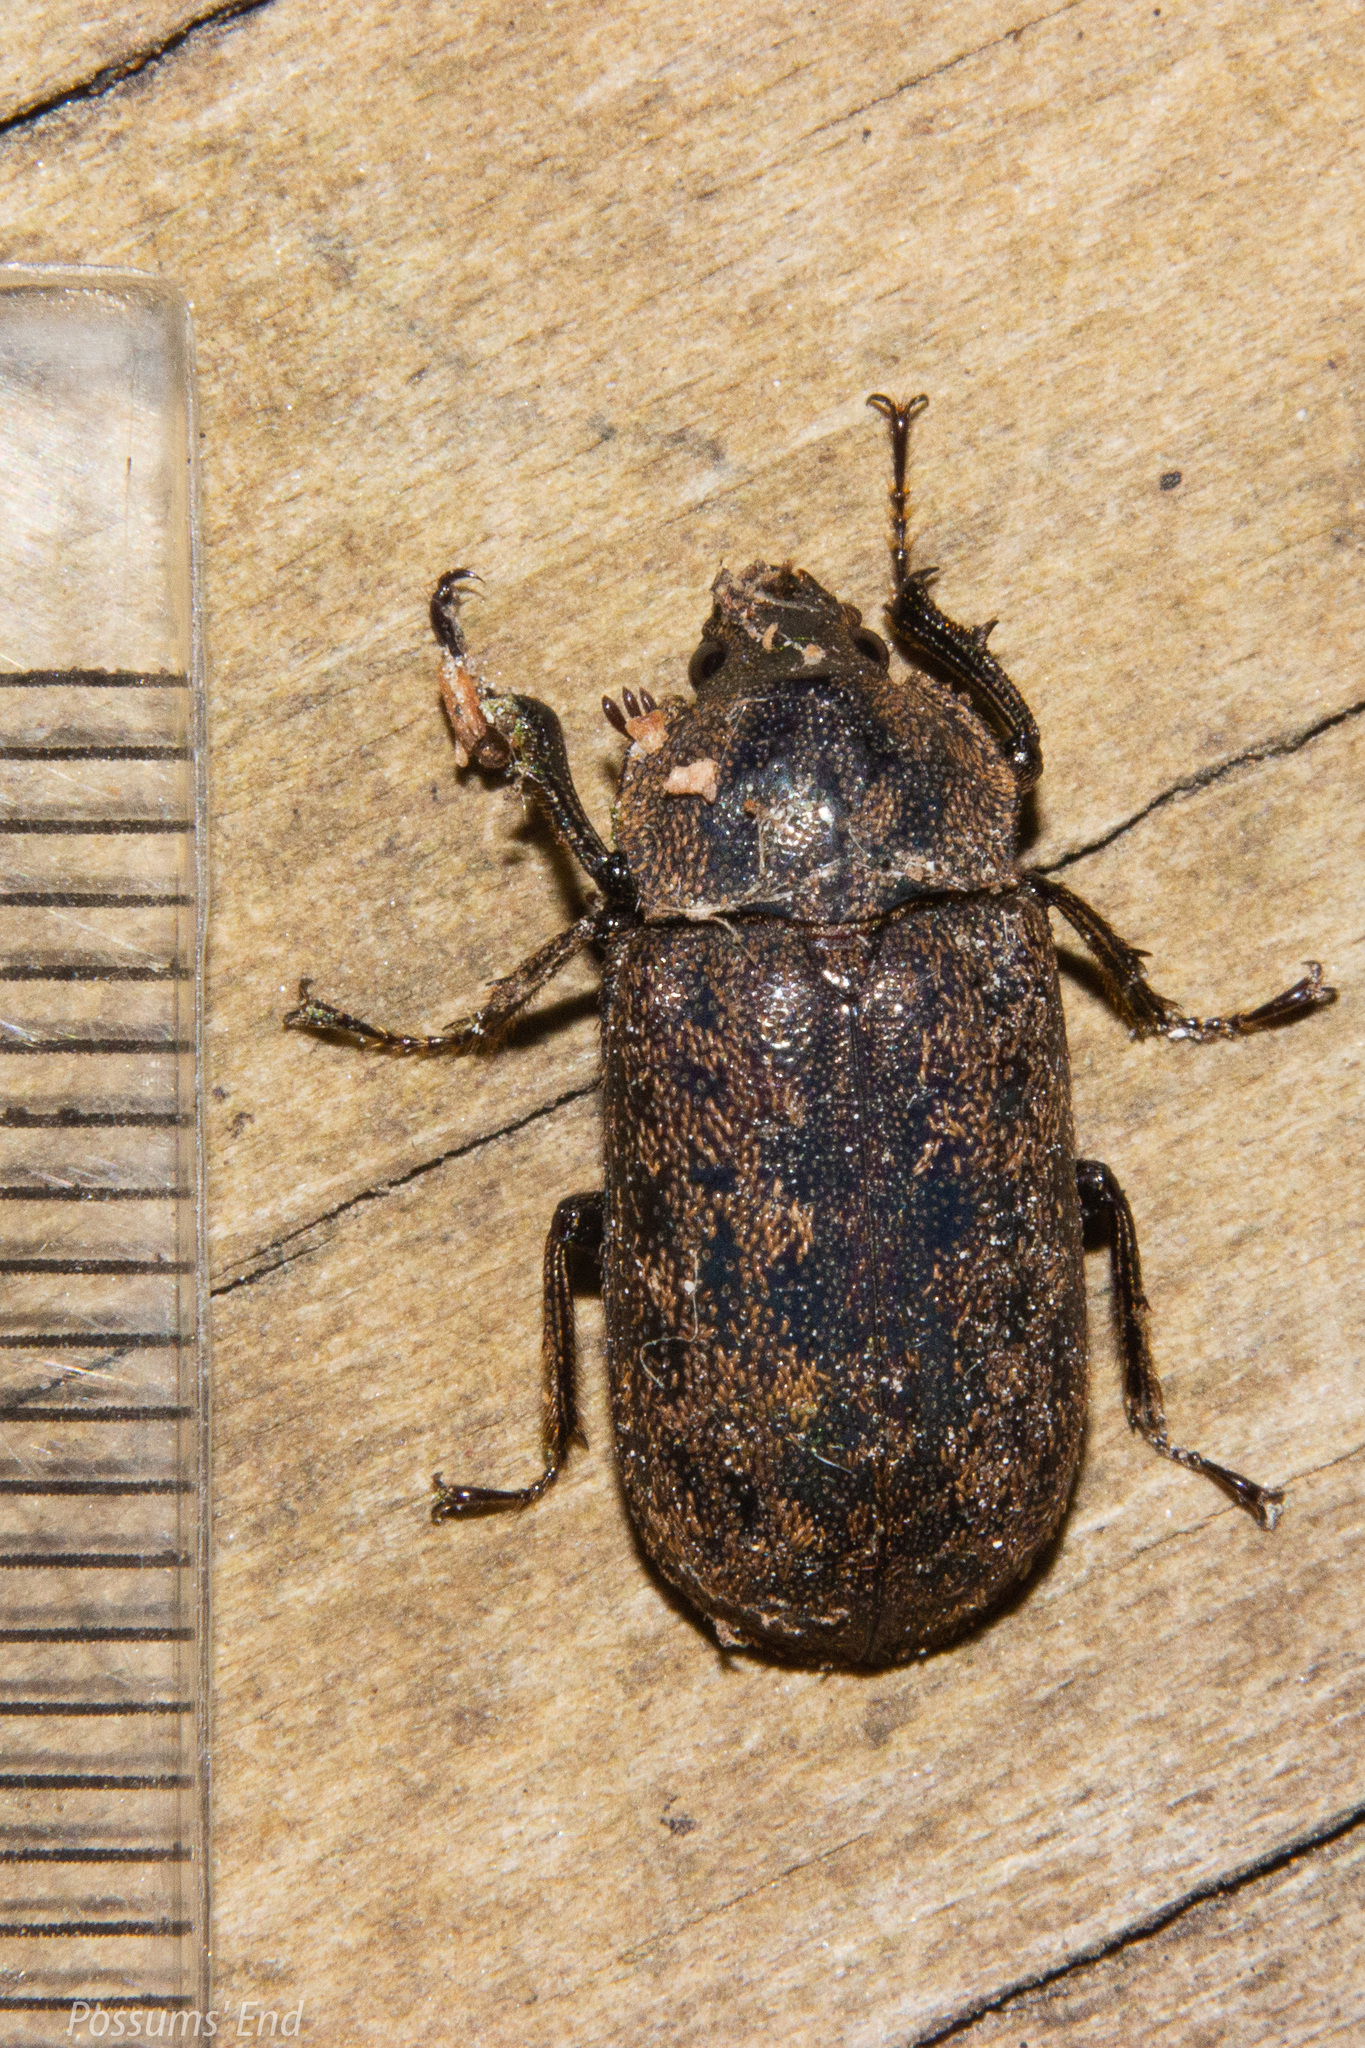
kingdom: Animalia
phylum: Arthropoda
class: Insecta
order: Coleoptera
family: Lucanidae
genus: Mitophyllus
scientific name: Mitophyllus parrianus
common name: Parry's stag beetle
